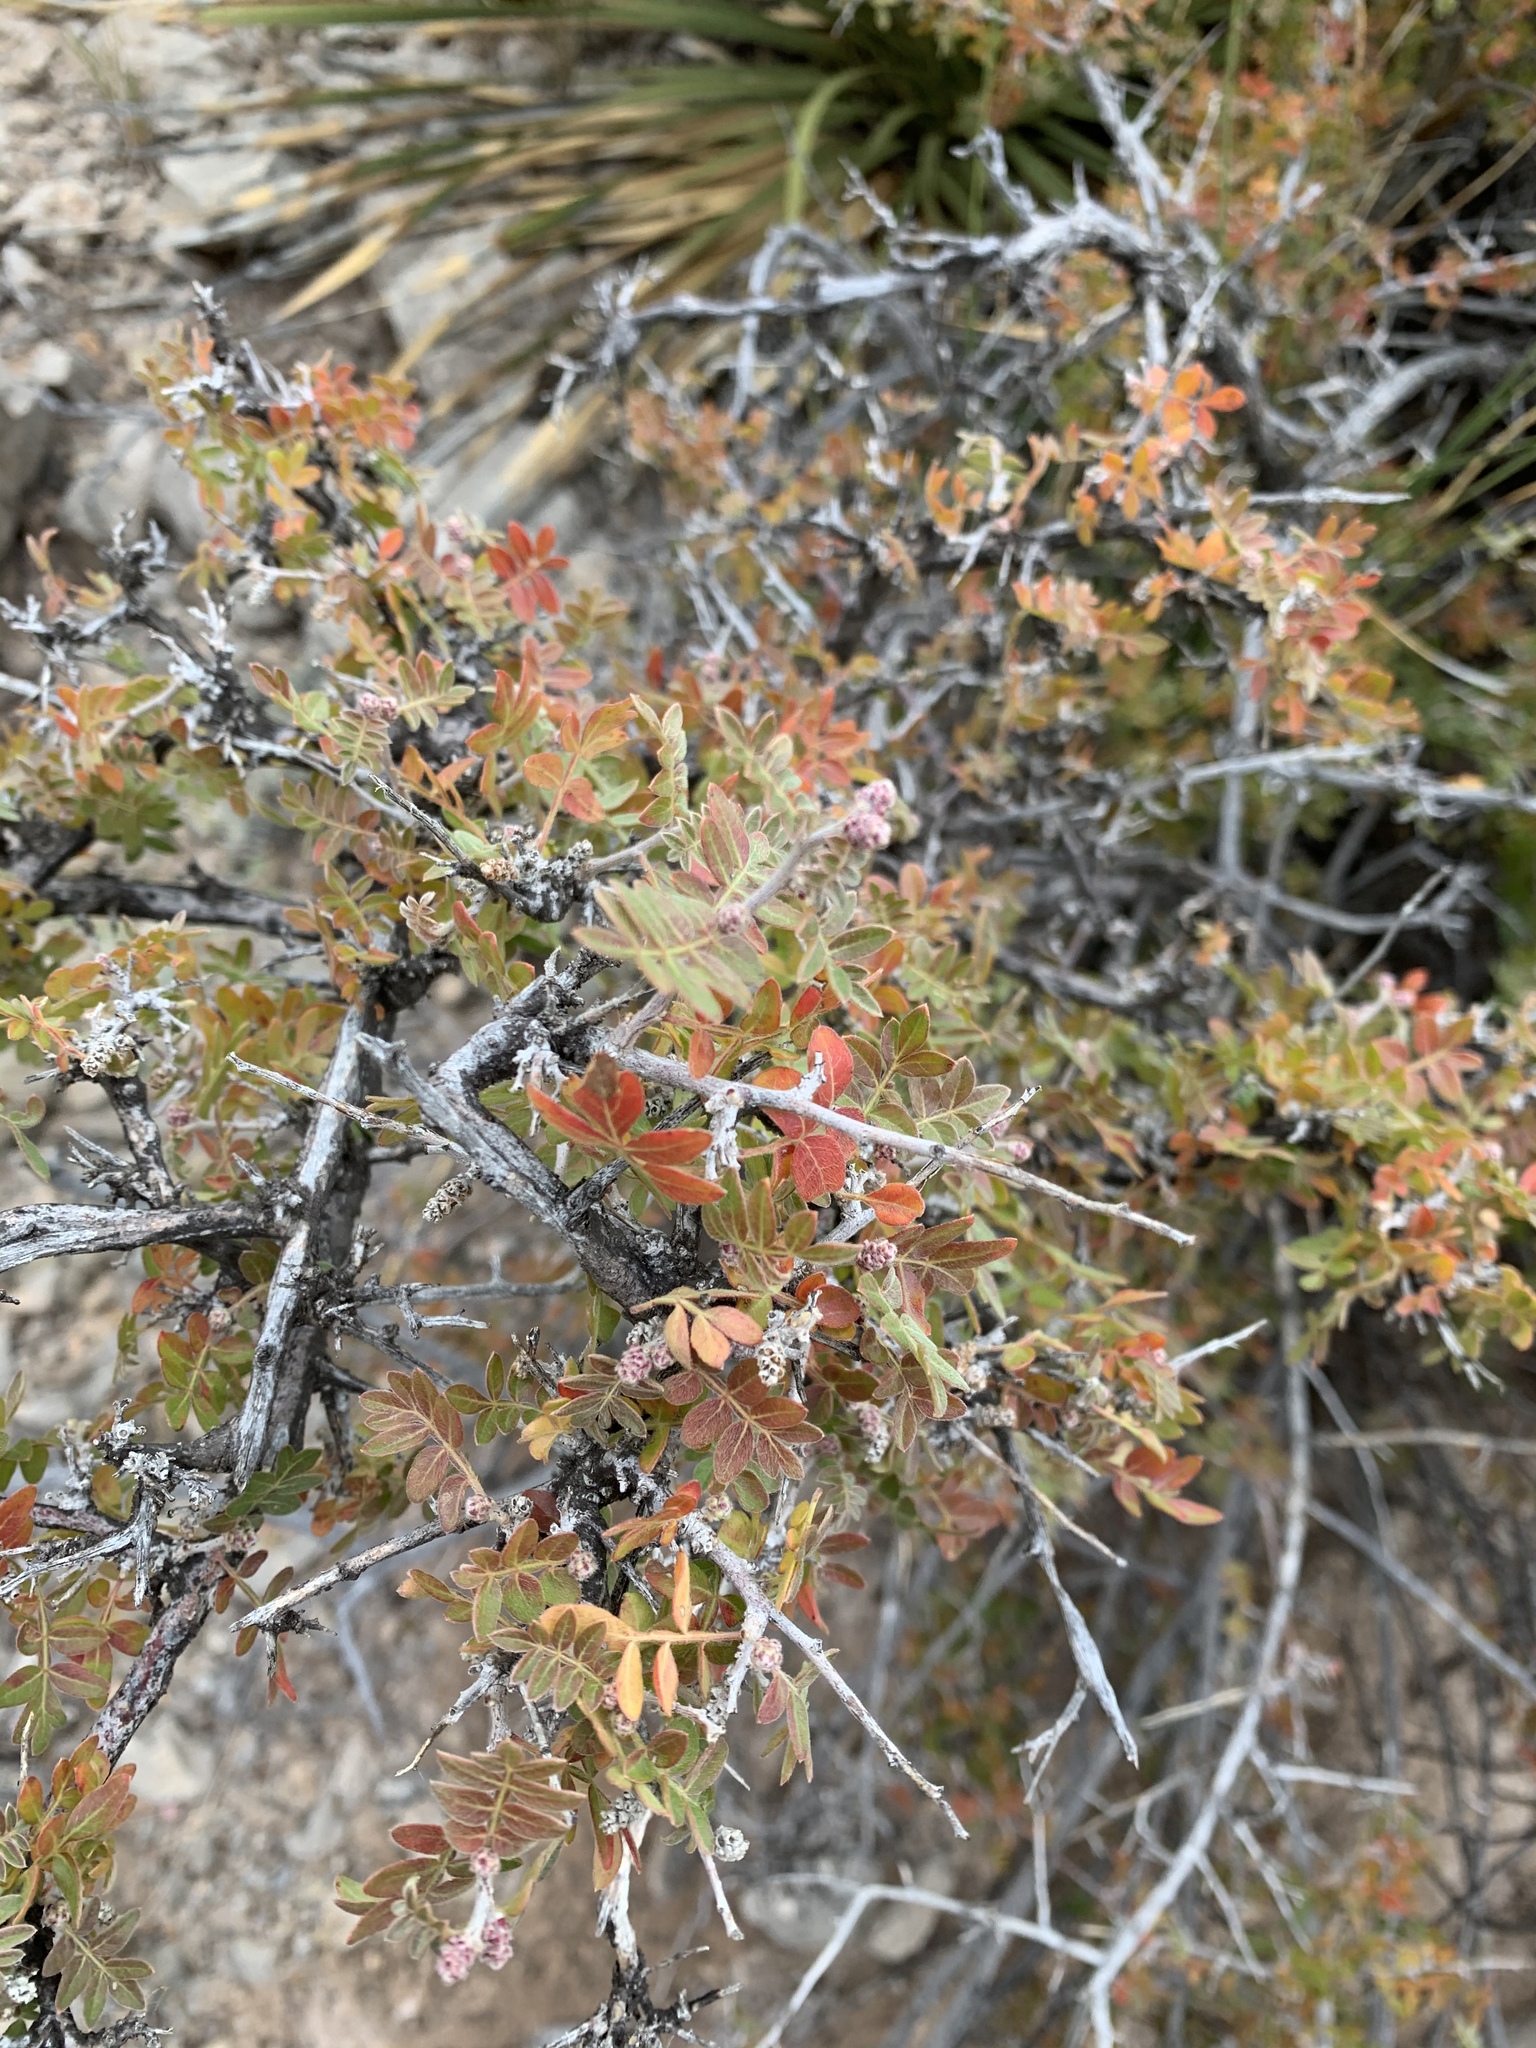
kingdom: Plantae
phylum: Tracheophyta
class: Magnoliopsida
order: Sapindales
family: Anacardiaceae
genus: Rhus
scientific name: Rhus microphylla
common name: Desert sumac
